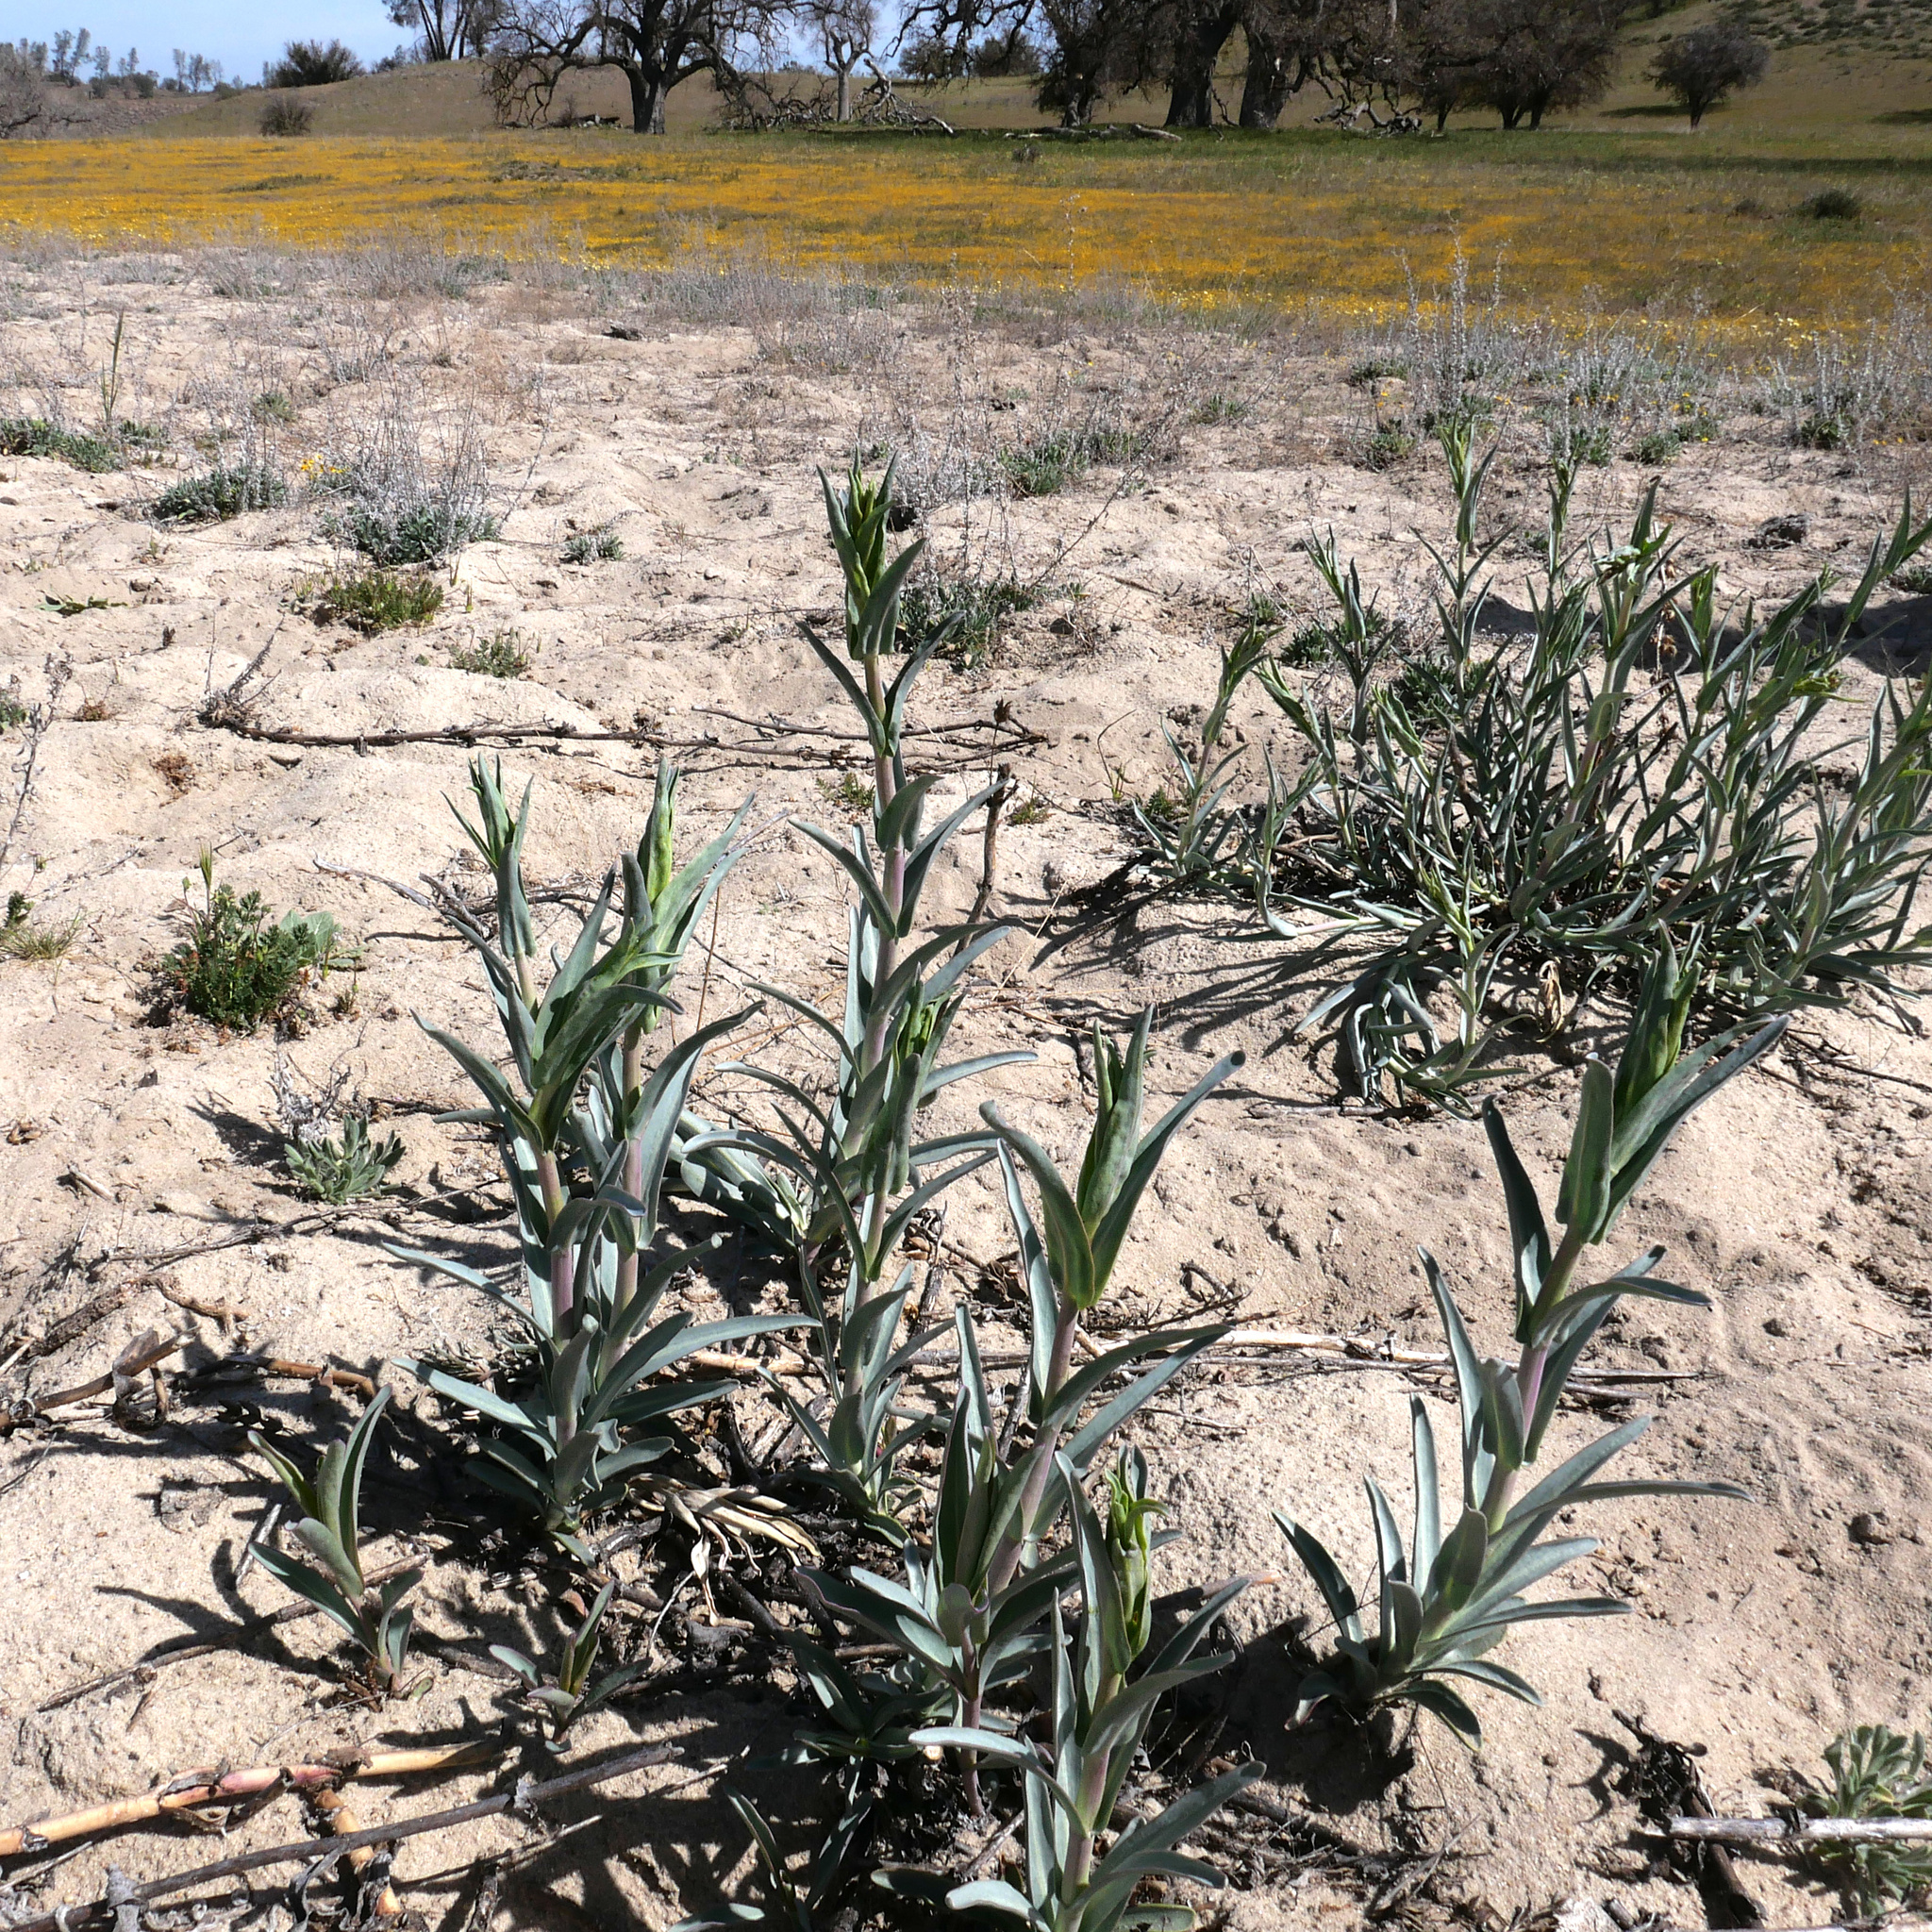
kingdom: Plantae
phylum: Tracheophyta
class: Magnoliopsida
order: Lamiales
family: Plantaginaceae
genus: Penstemon
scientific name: Penstemon centranthifolius
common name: Scarlet bugler
